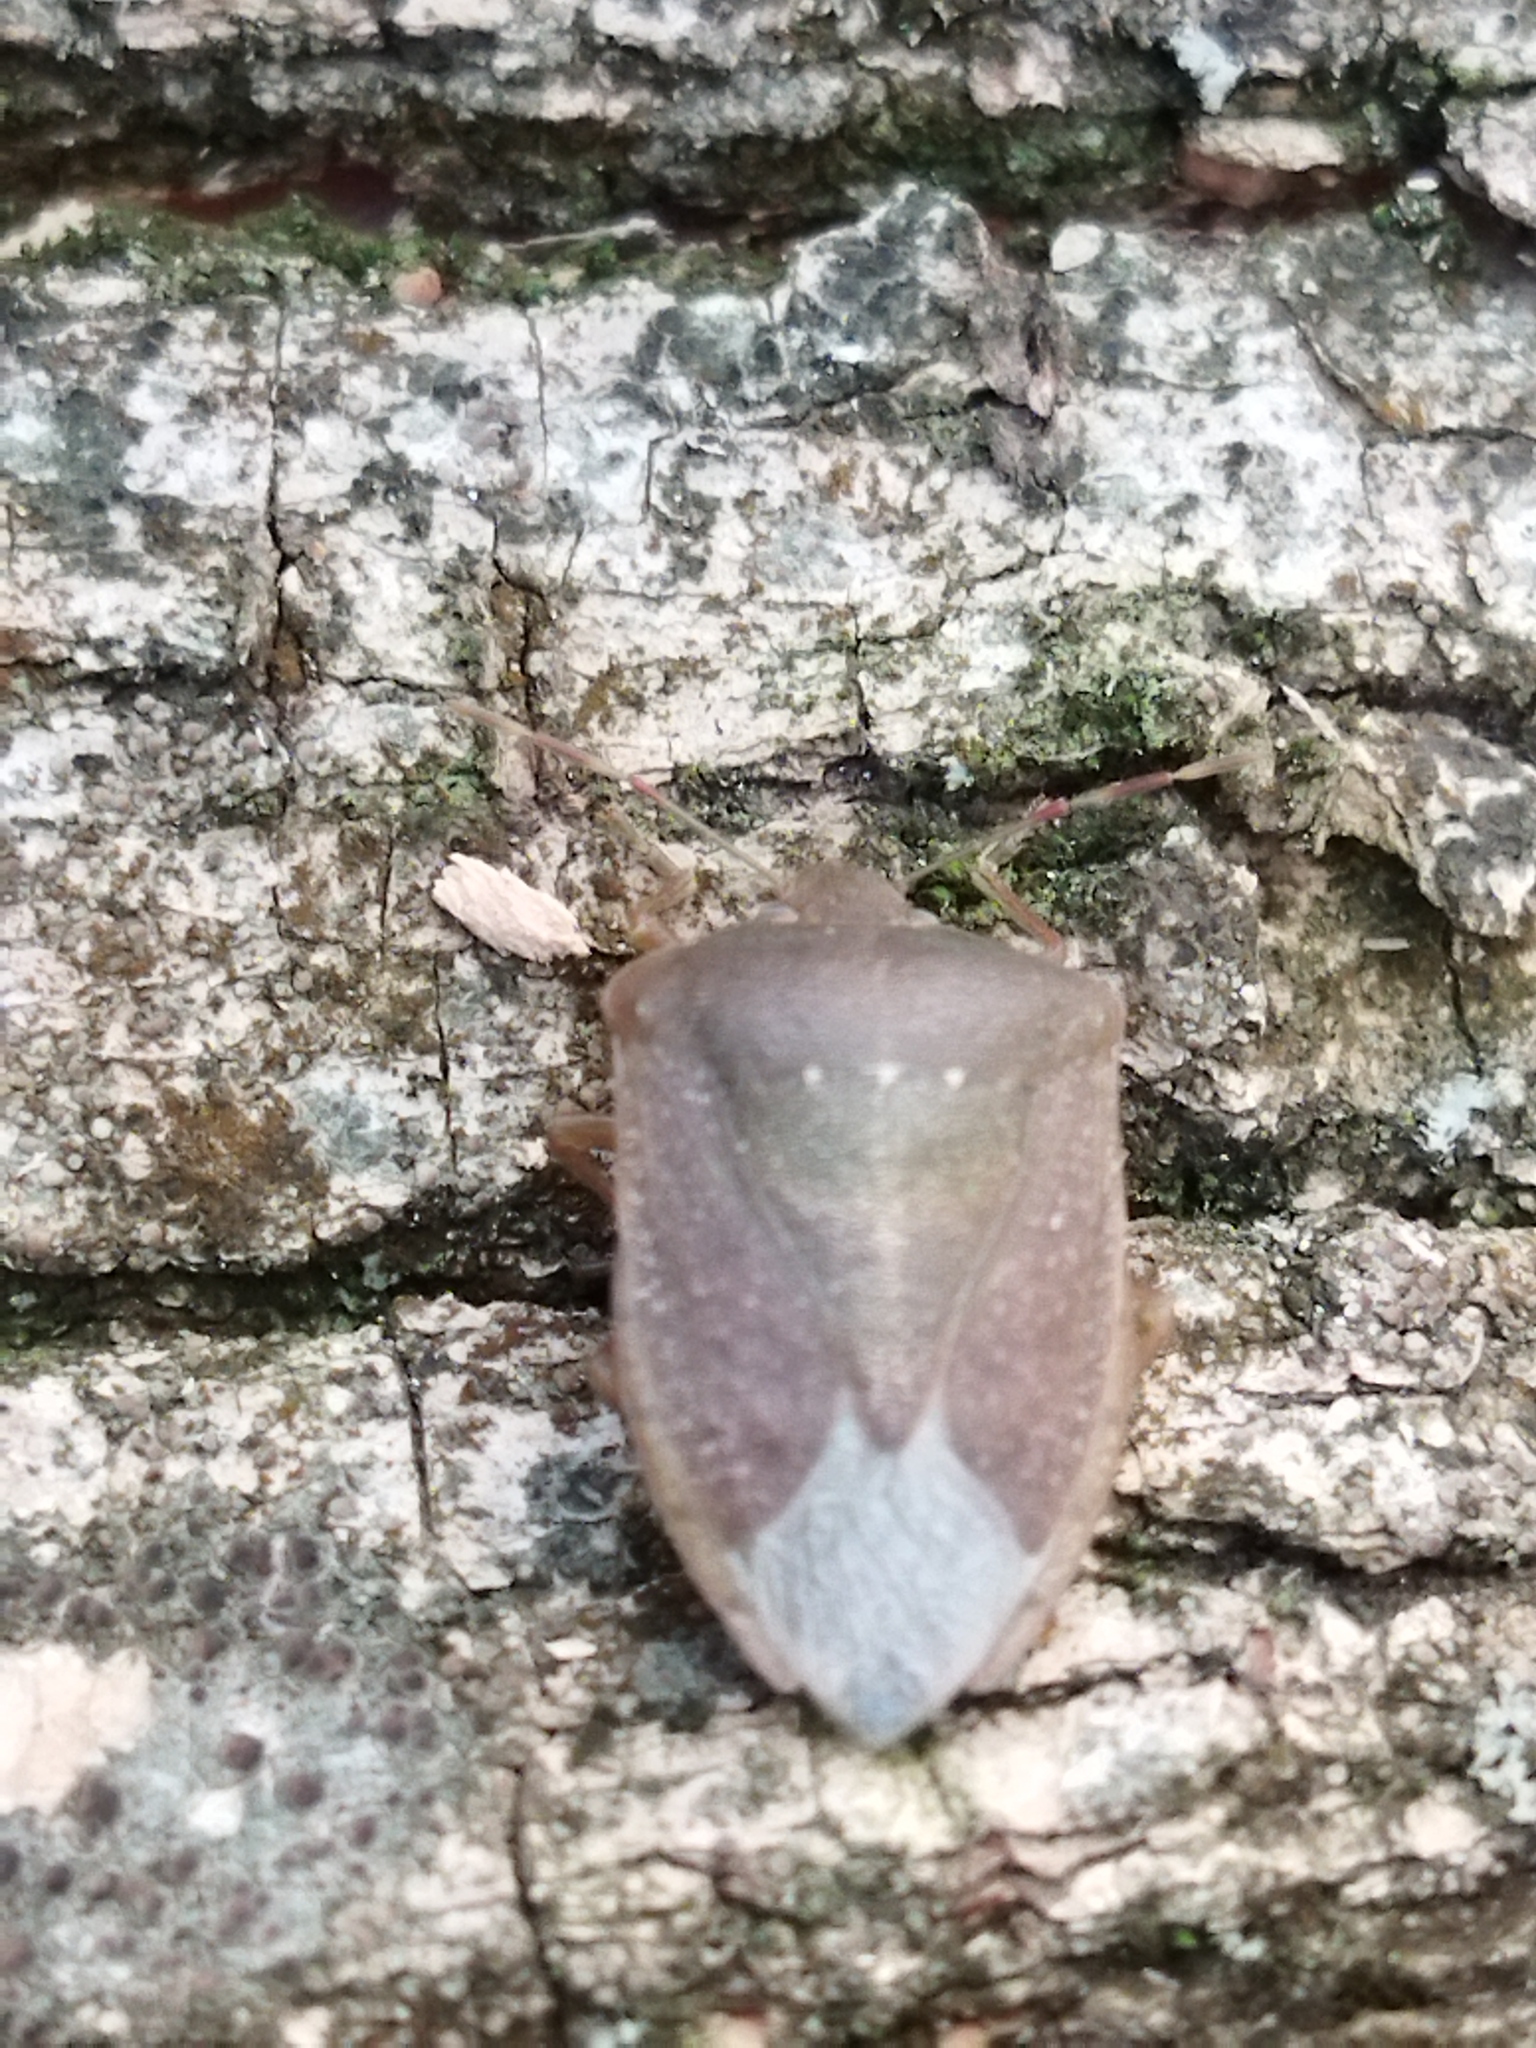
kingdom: Animalia
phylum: Arthropoda
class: Insecta
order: Hemiptera
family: Pentatomidae
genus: Nezara
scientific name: Nezara viridula
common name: Southern green stink bug
